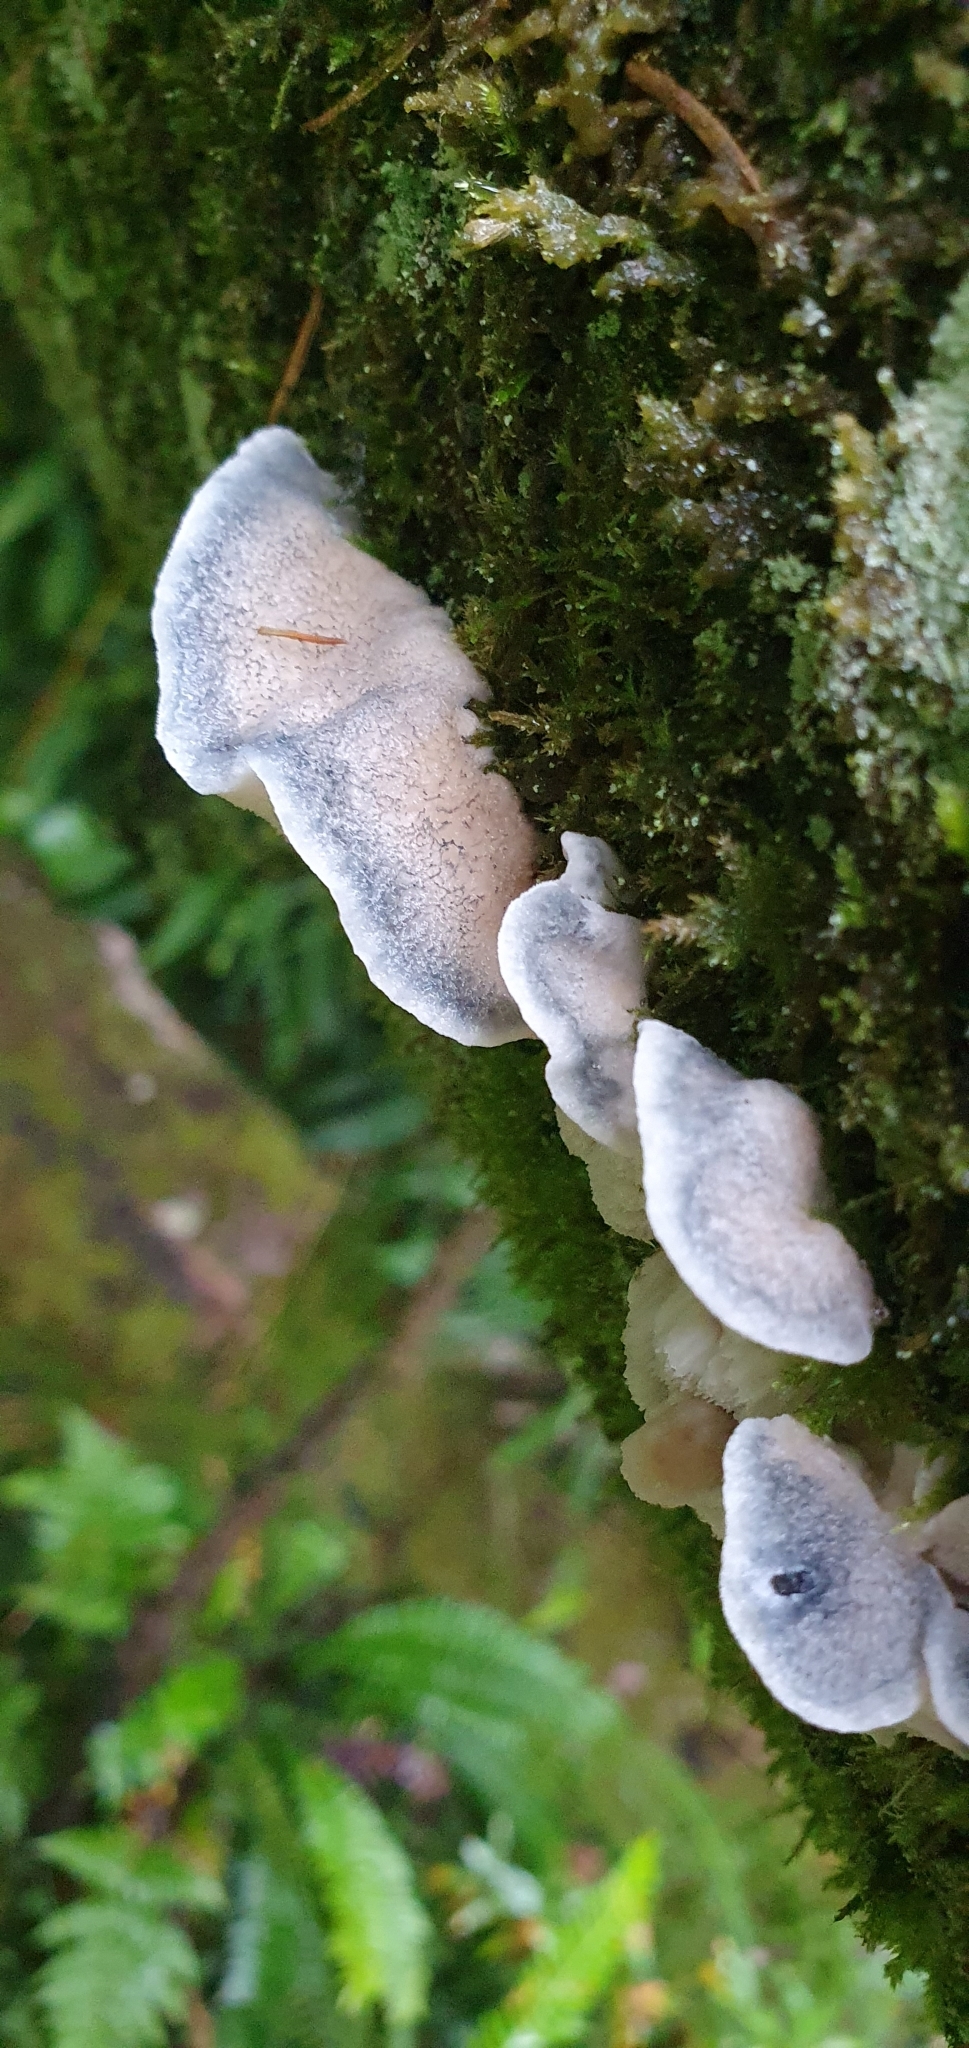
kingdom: Fungi
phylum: Basidiomycota
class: Agaricomycetes
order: Polyporales
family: Polyporaceae
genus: Cyanosporus
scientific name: Cyanosporus caesius
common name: Blue cheese polypore
